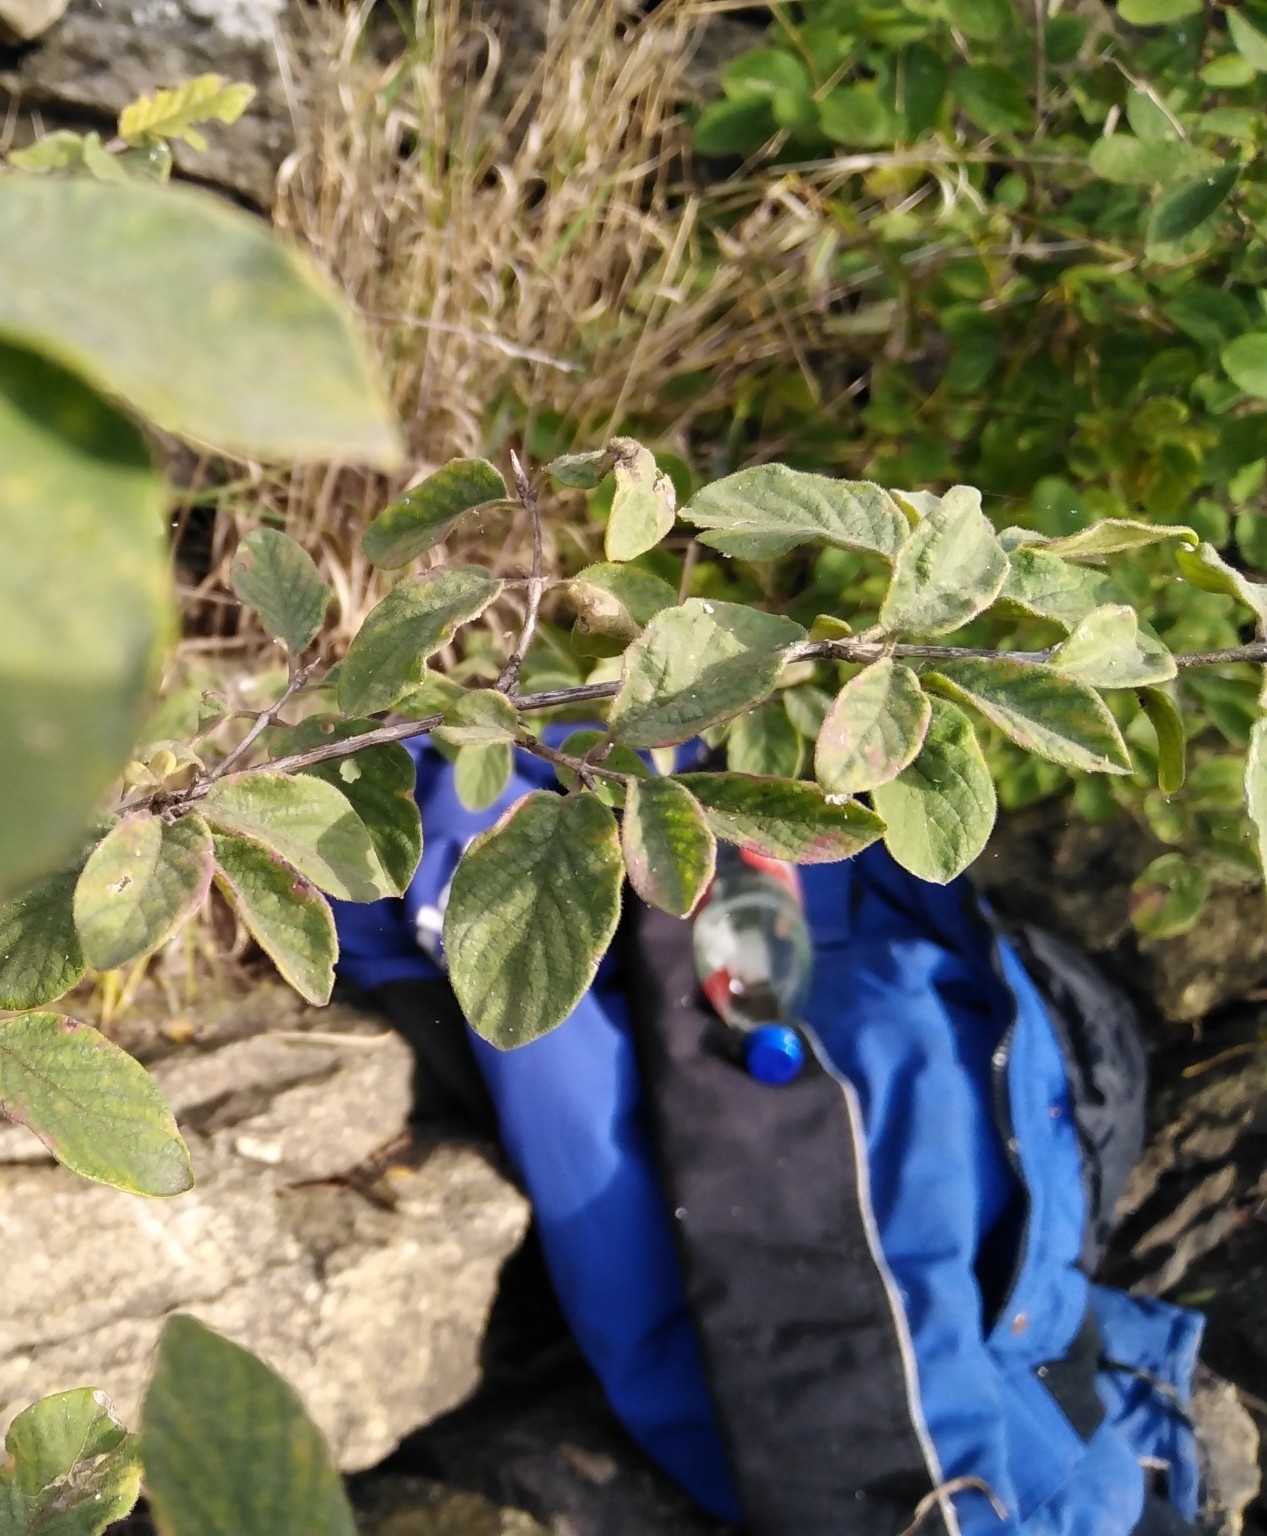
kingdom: Plantae
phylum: Tracheophyta
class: Magnoliopsida
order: Dipsacales
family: Caprifoliaceae
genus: Lonicera
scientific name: Lonicera xylosteum
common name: Fly honeysuckle
